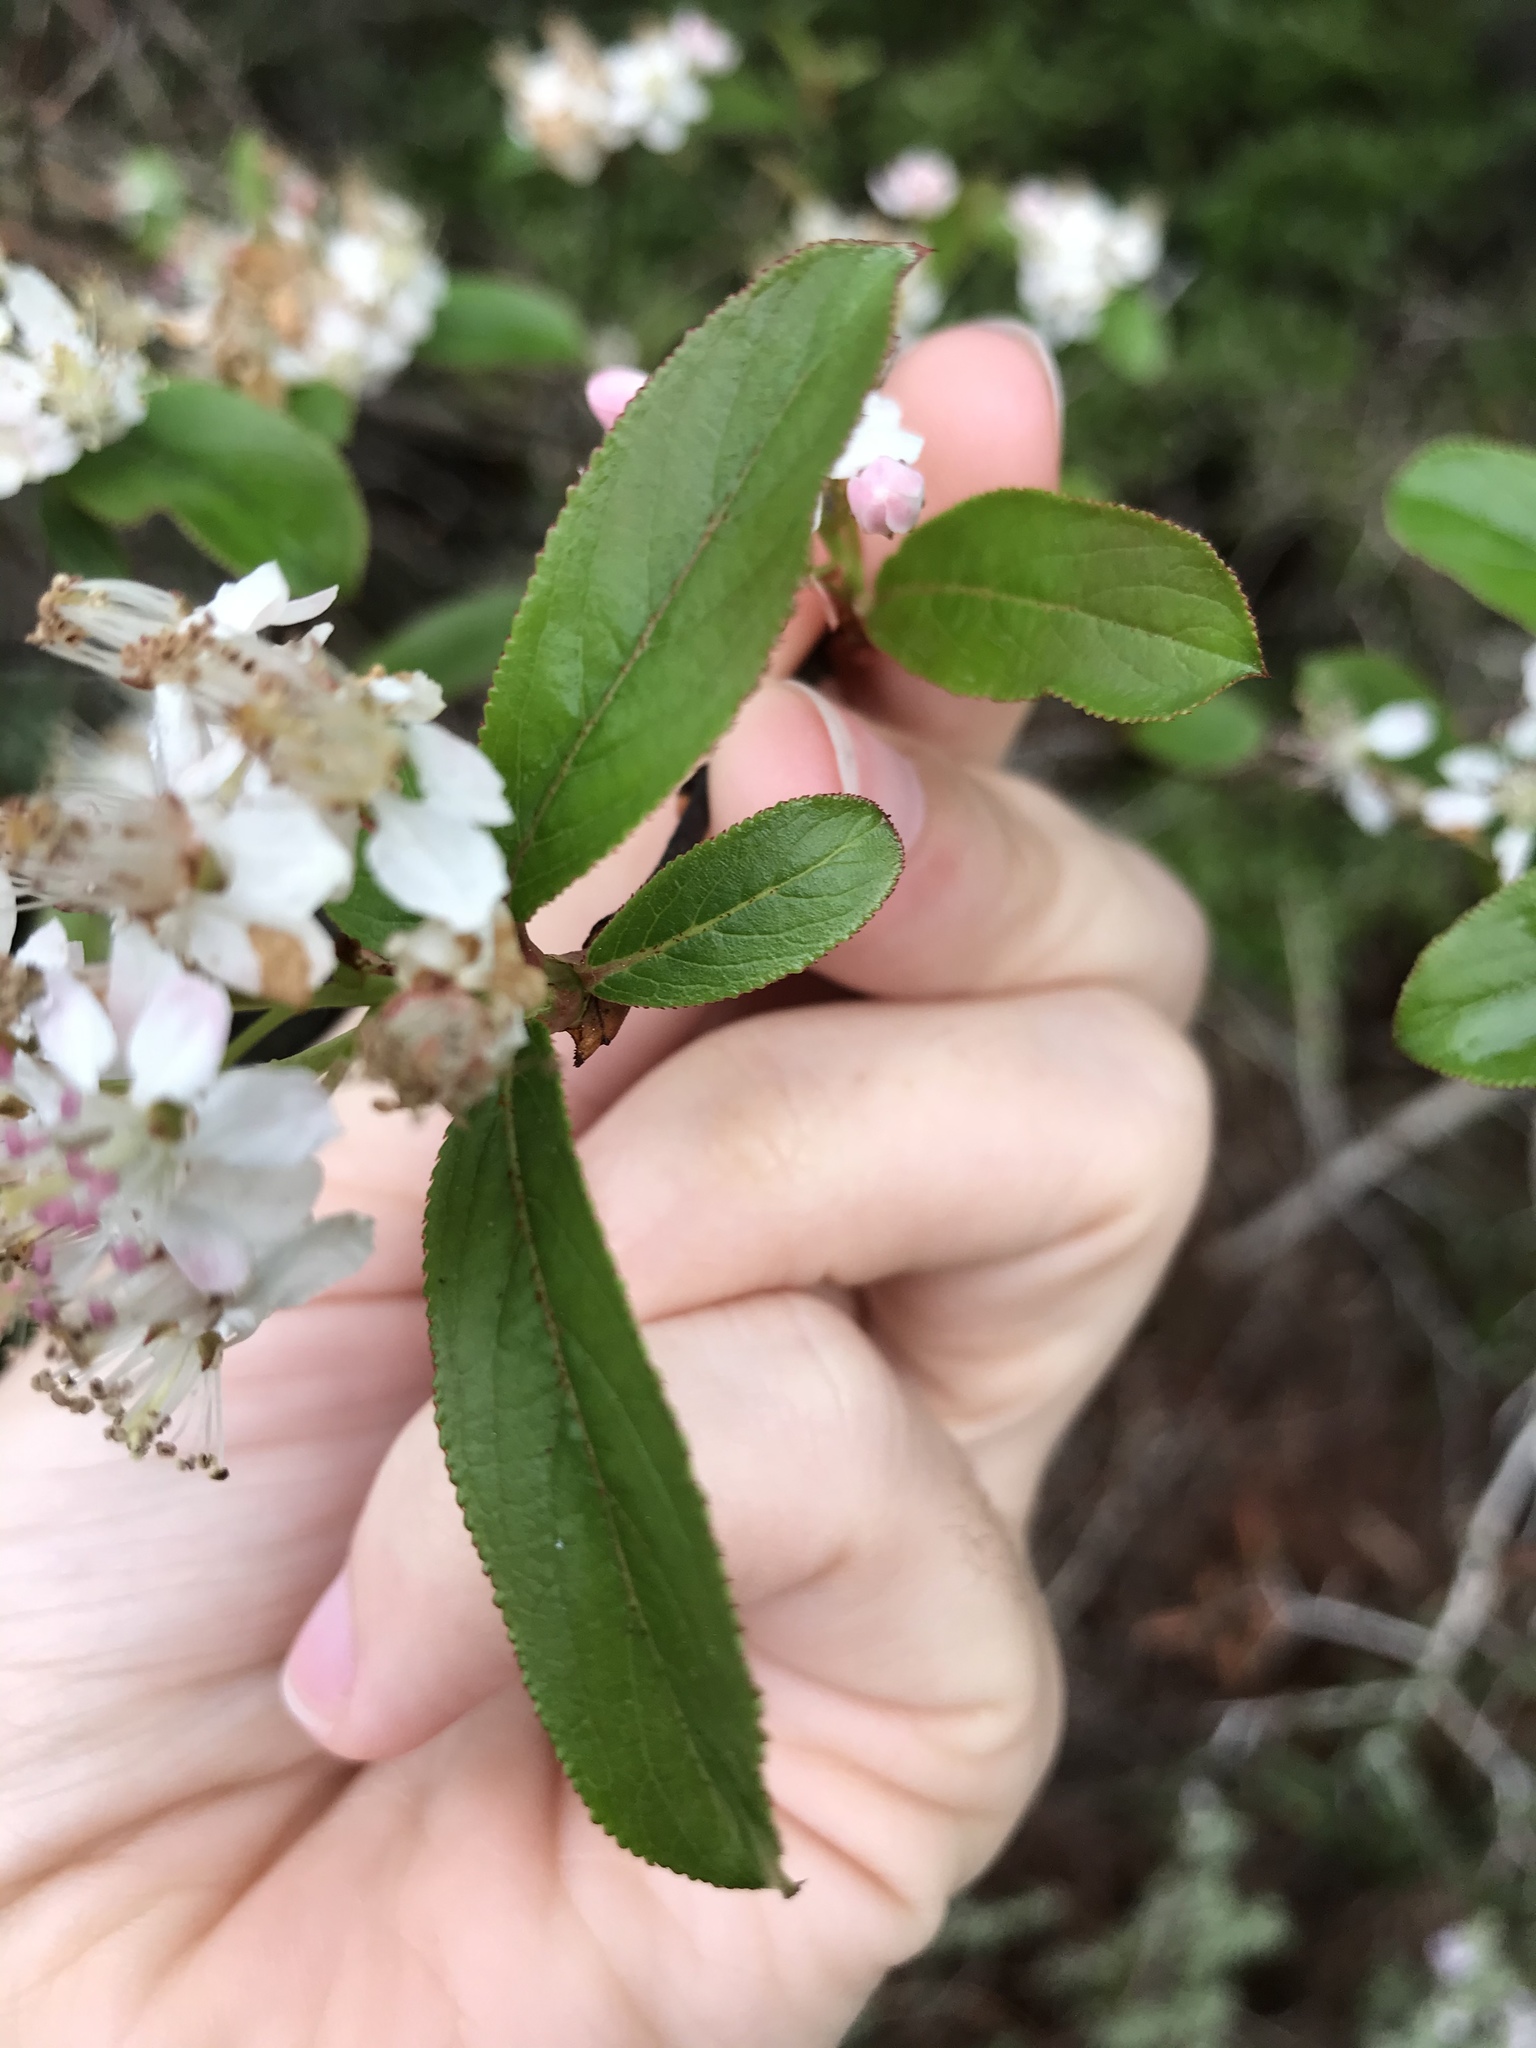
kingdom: Plantae
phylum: Tracheophyta
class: Magnoliopsida
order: Rosales
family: Rosaceae
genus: Aronia
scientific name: Aronia arbutifolia
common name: Red chokeberry
